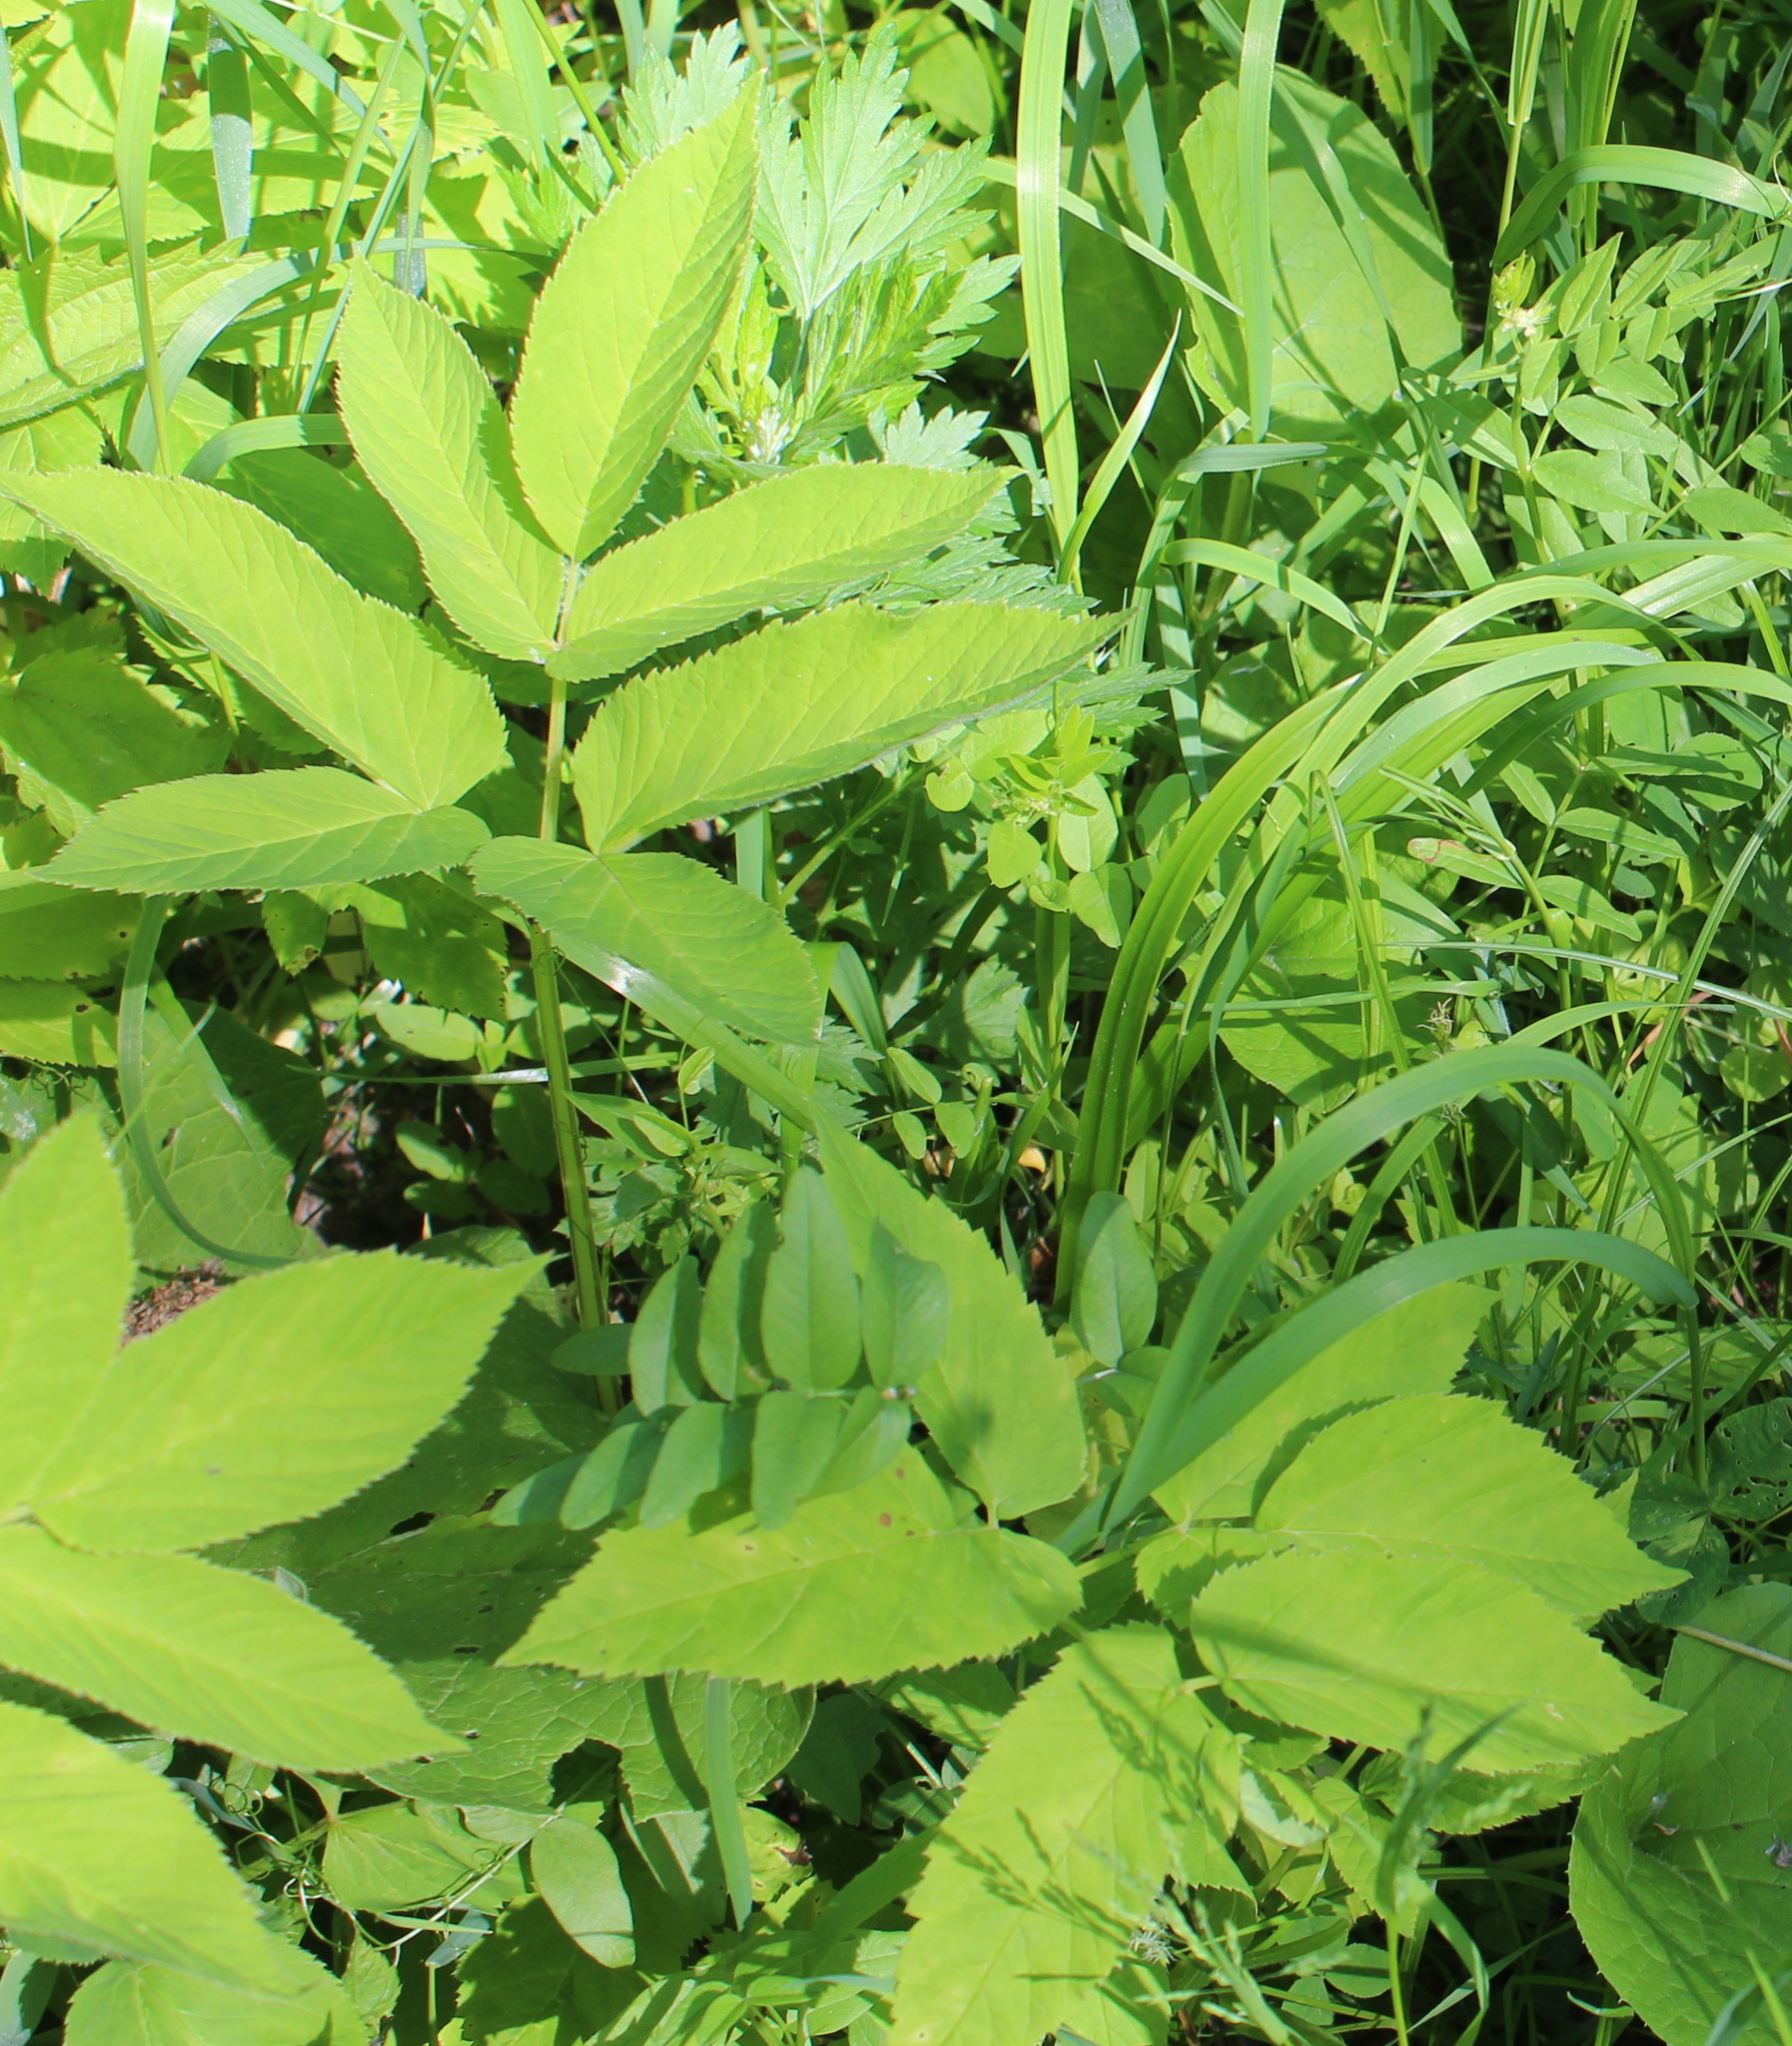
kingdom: Plantae
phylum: Tracheophyta
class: Magnoliopsida
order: Apiales
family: Apiaceae
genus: Aegopodium
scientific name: Aegopodium podagraria
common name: Ground-elder
